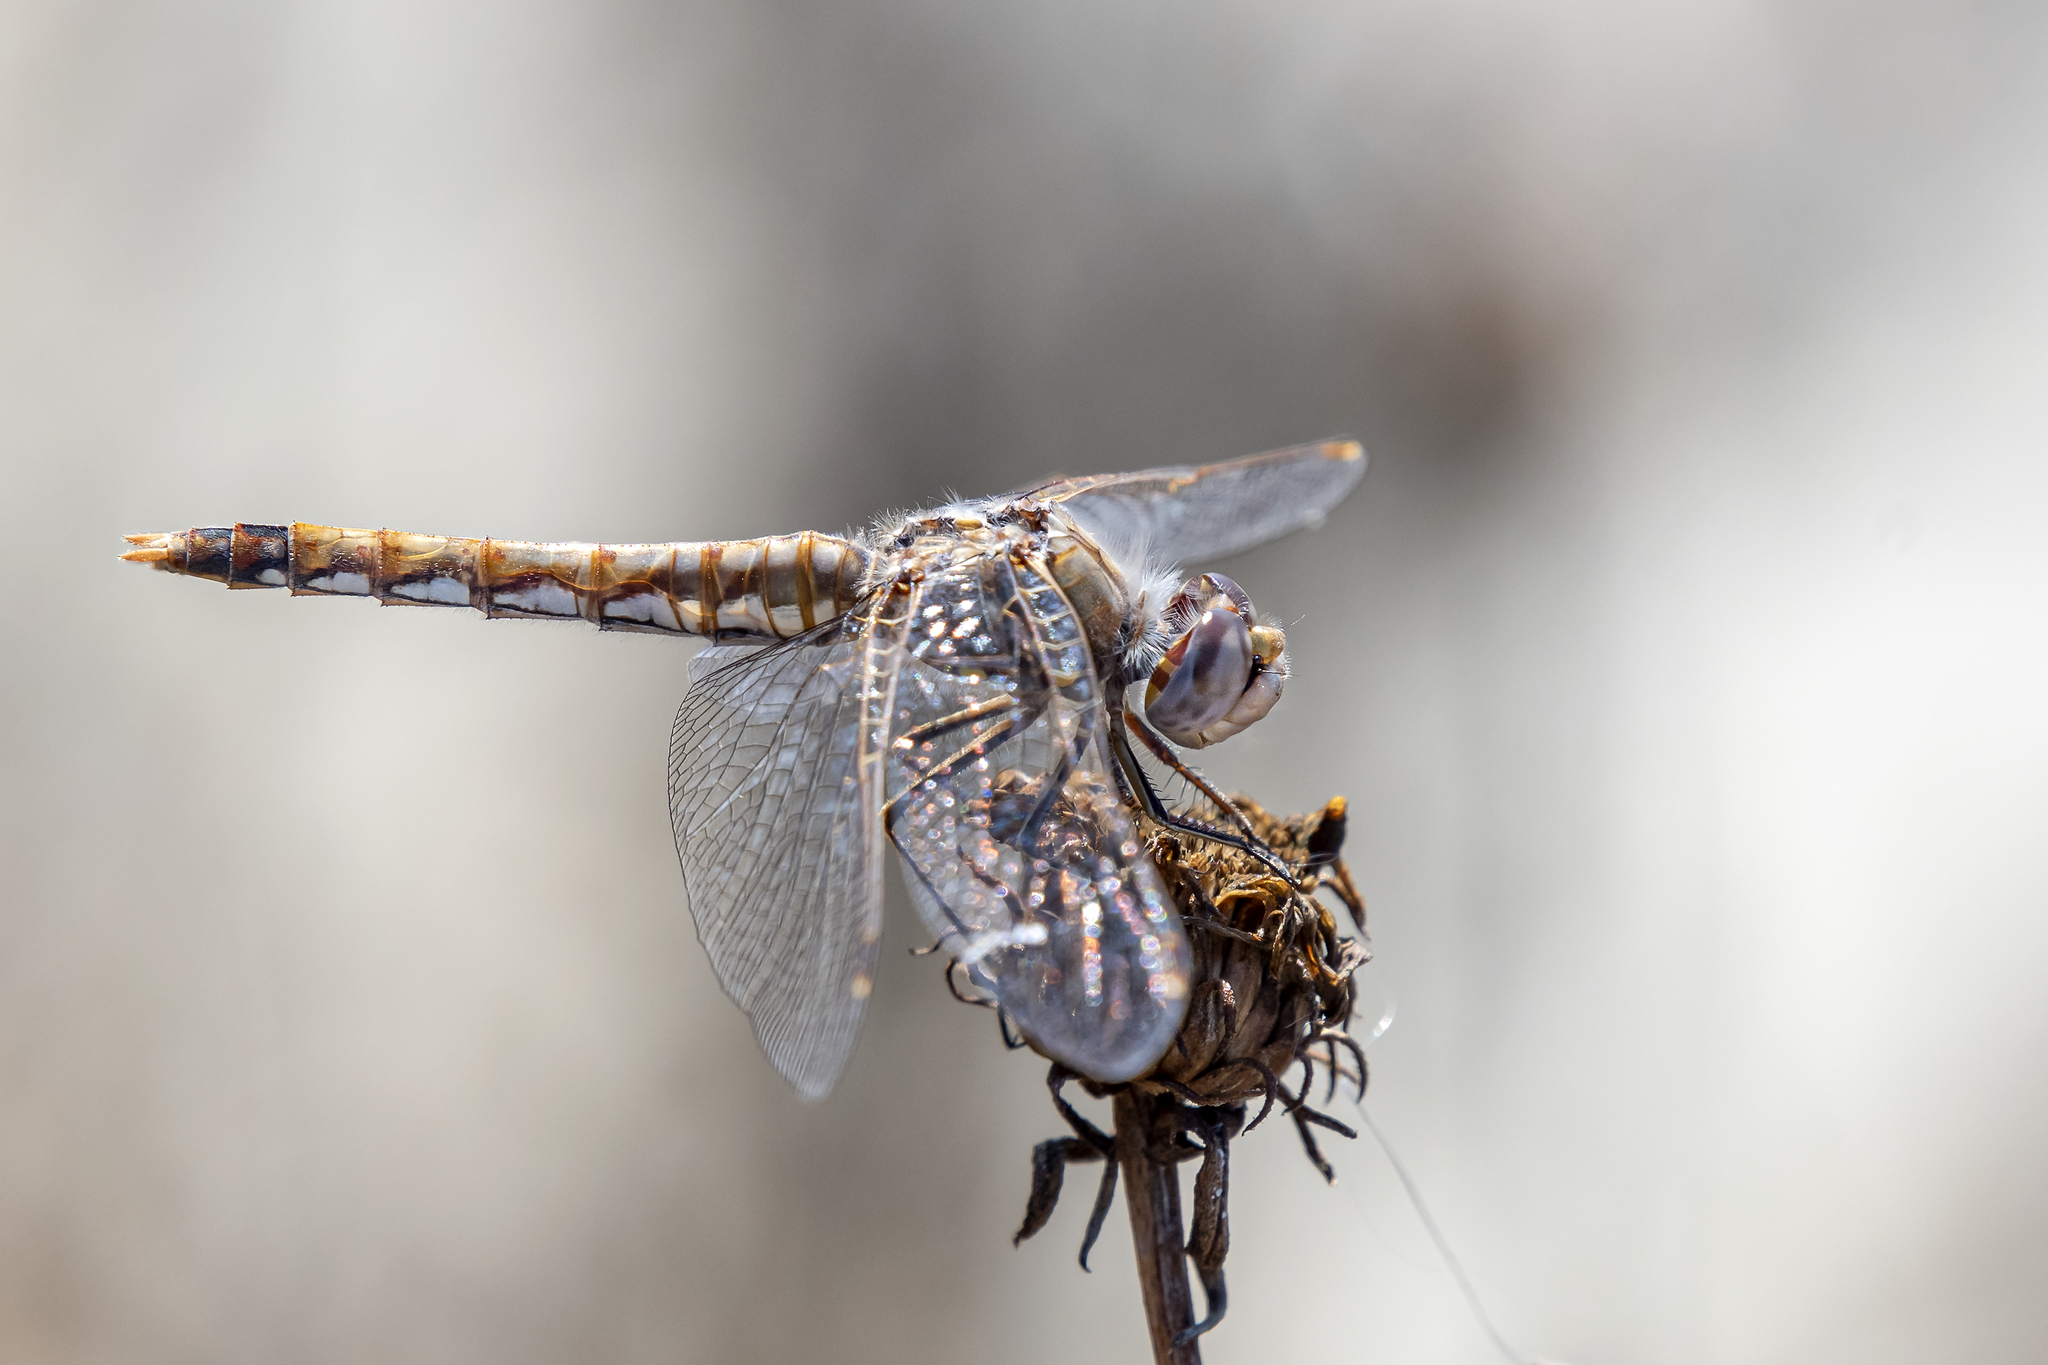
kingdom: Animalia
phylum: Arthropoda
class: Insecta
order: Odonata
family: Libellulidae
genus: Sympetrum
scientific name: Sympetrum corruptum
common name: Variegated meadowhawk
